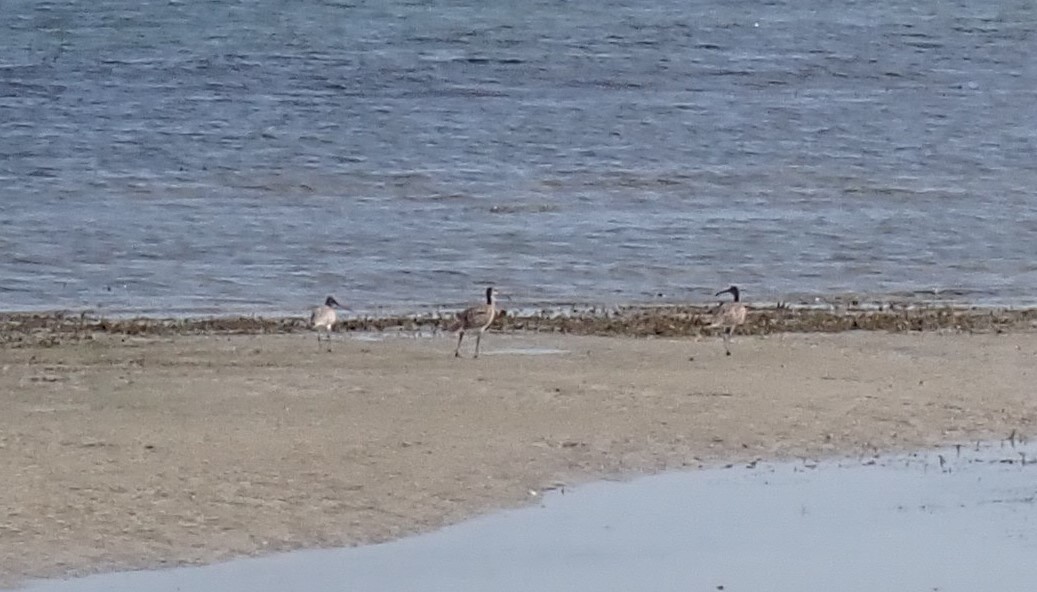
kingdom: Animalia
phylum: Chordata
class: Aves
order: Charadriiformes
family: Scolopacidae
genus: Numenius
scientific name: Numenius phaeopus
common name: Whimbrel
